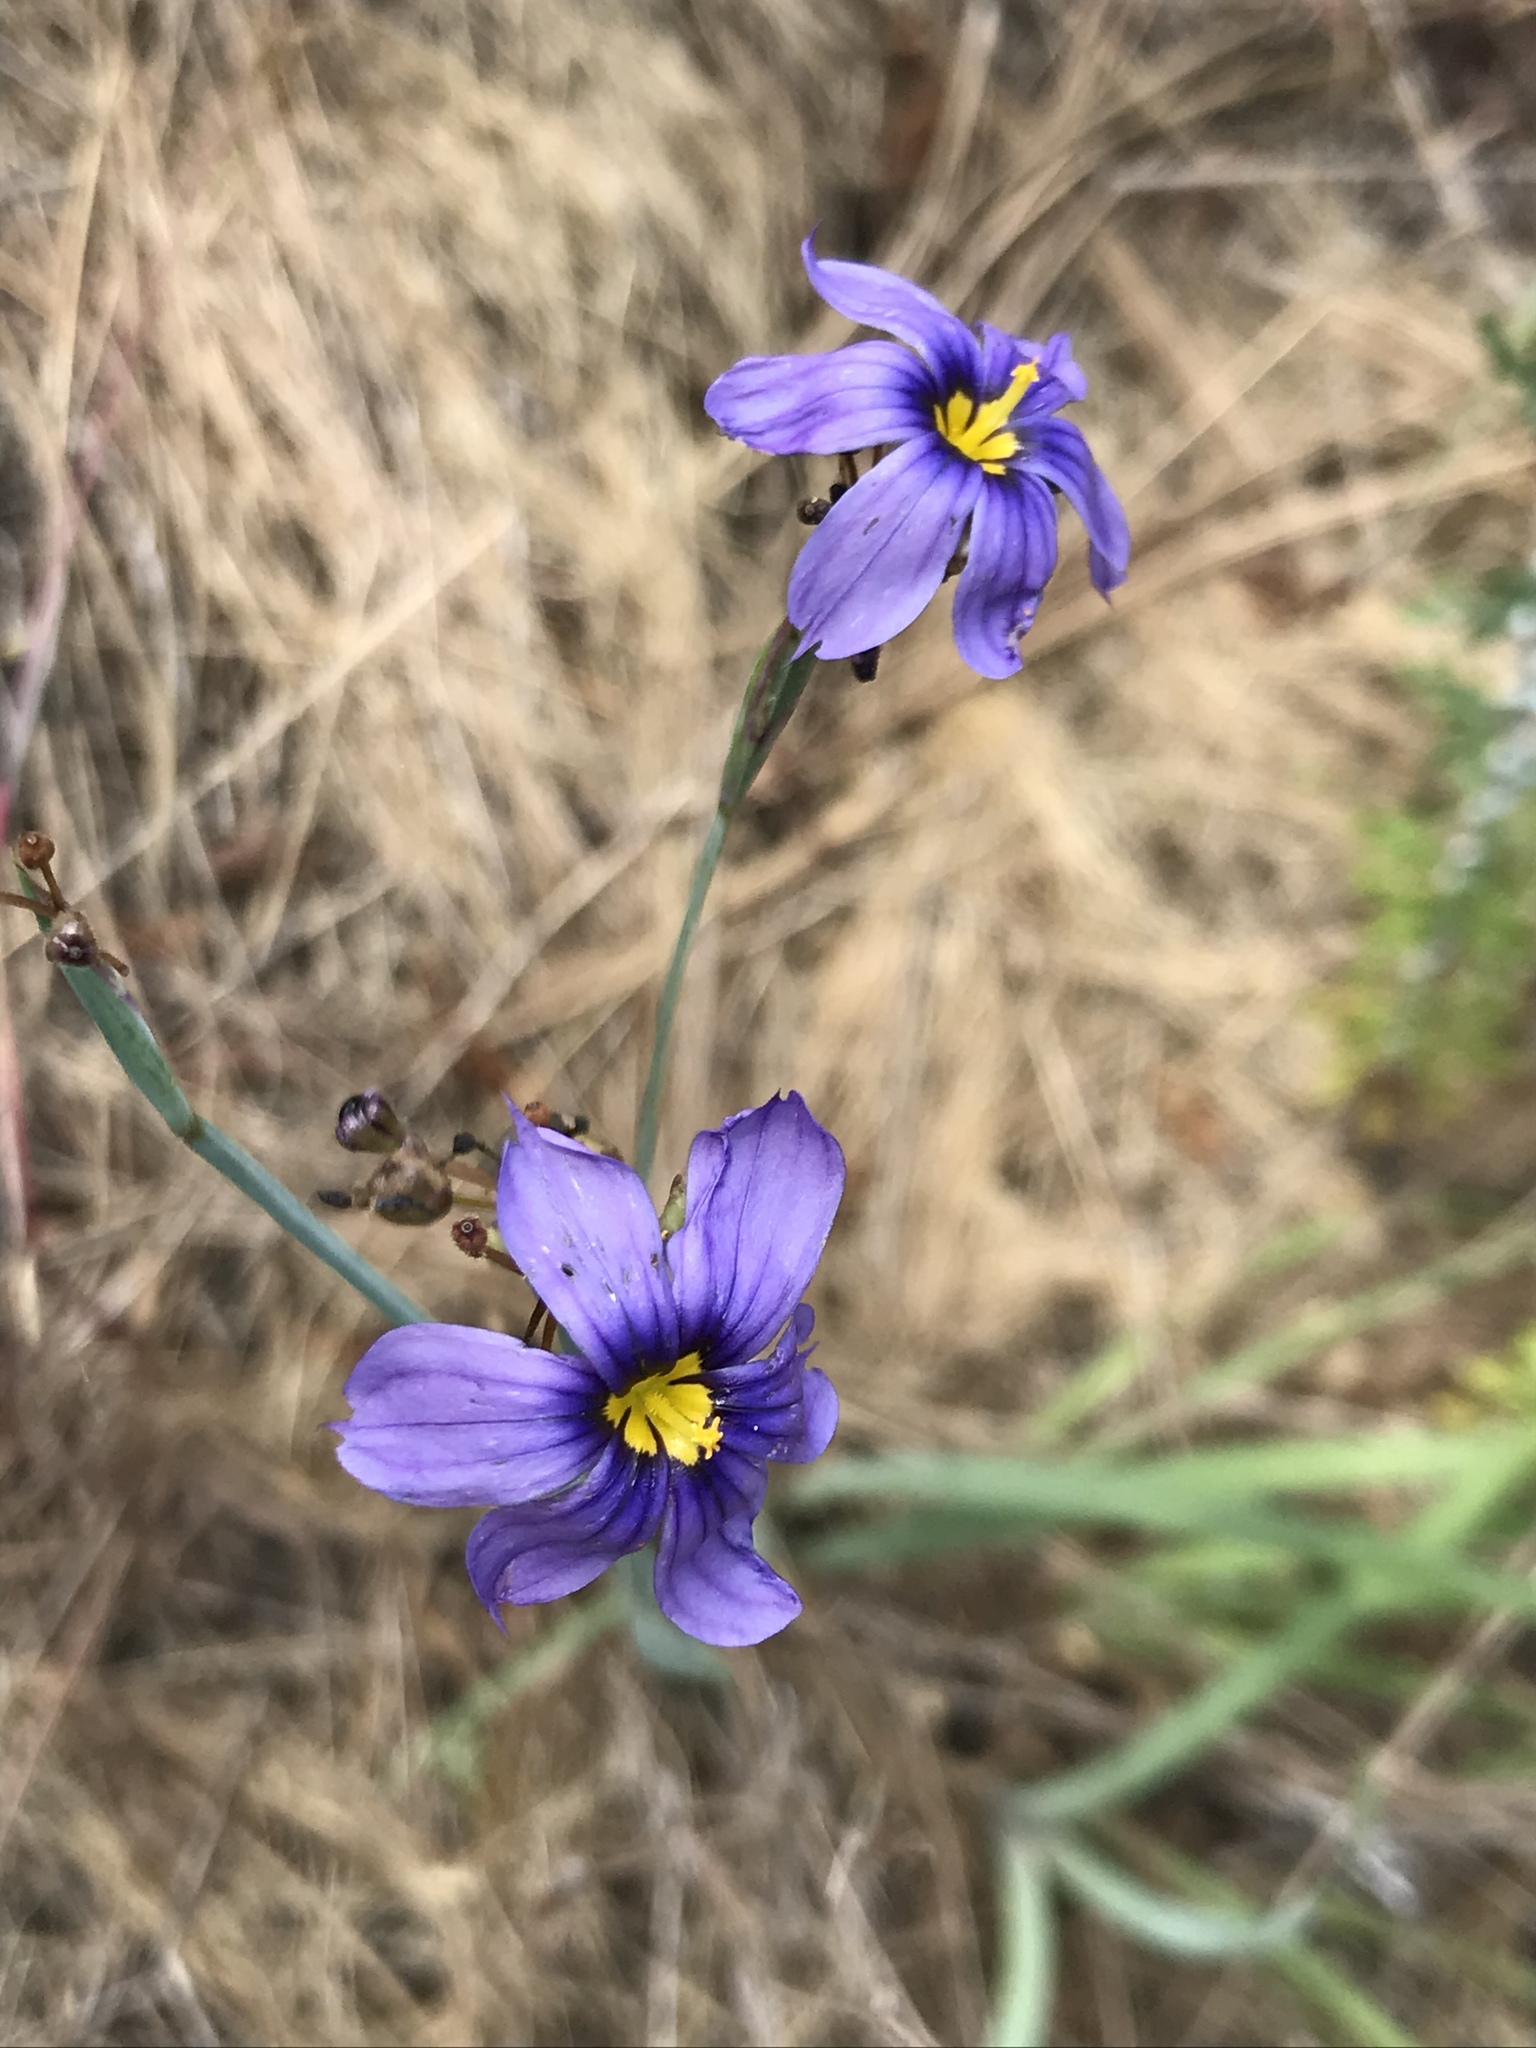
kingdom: Plantae
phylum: Tracheophyta
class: Liliopsida
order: Asparagales
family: Iridaceae
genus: Sisyrinchium
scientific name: Sisyrinchium bellum
